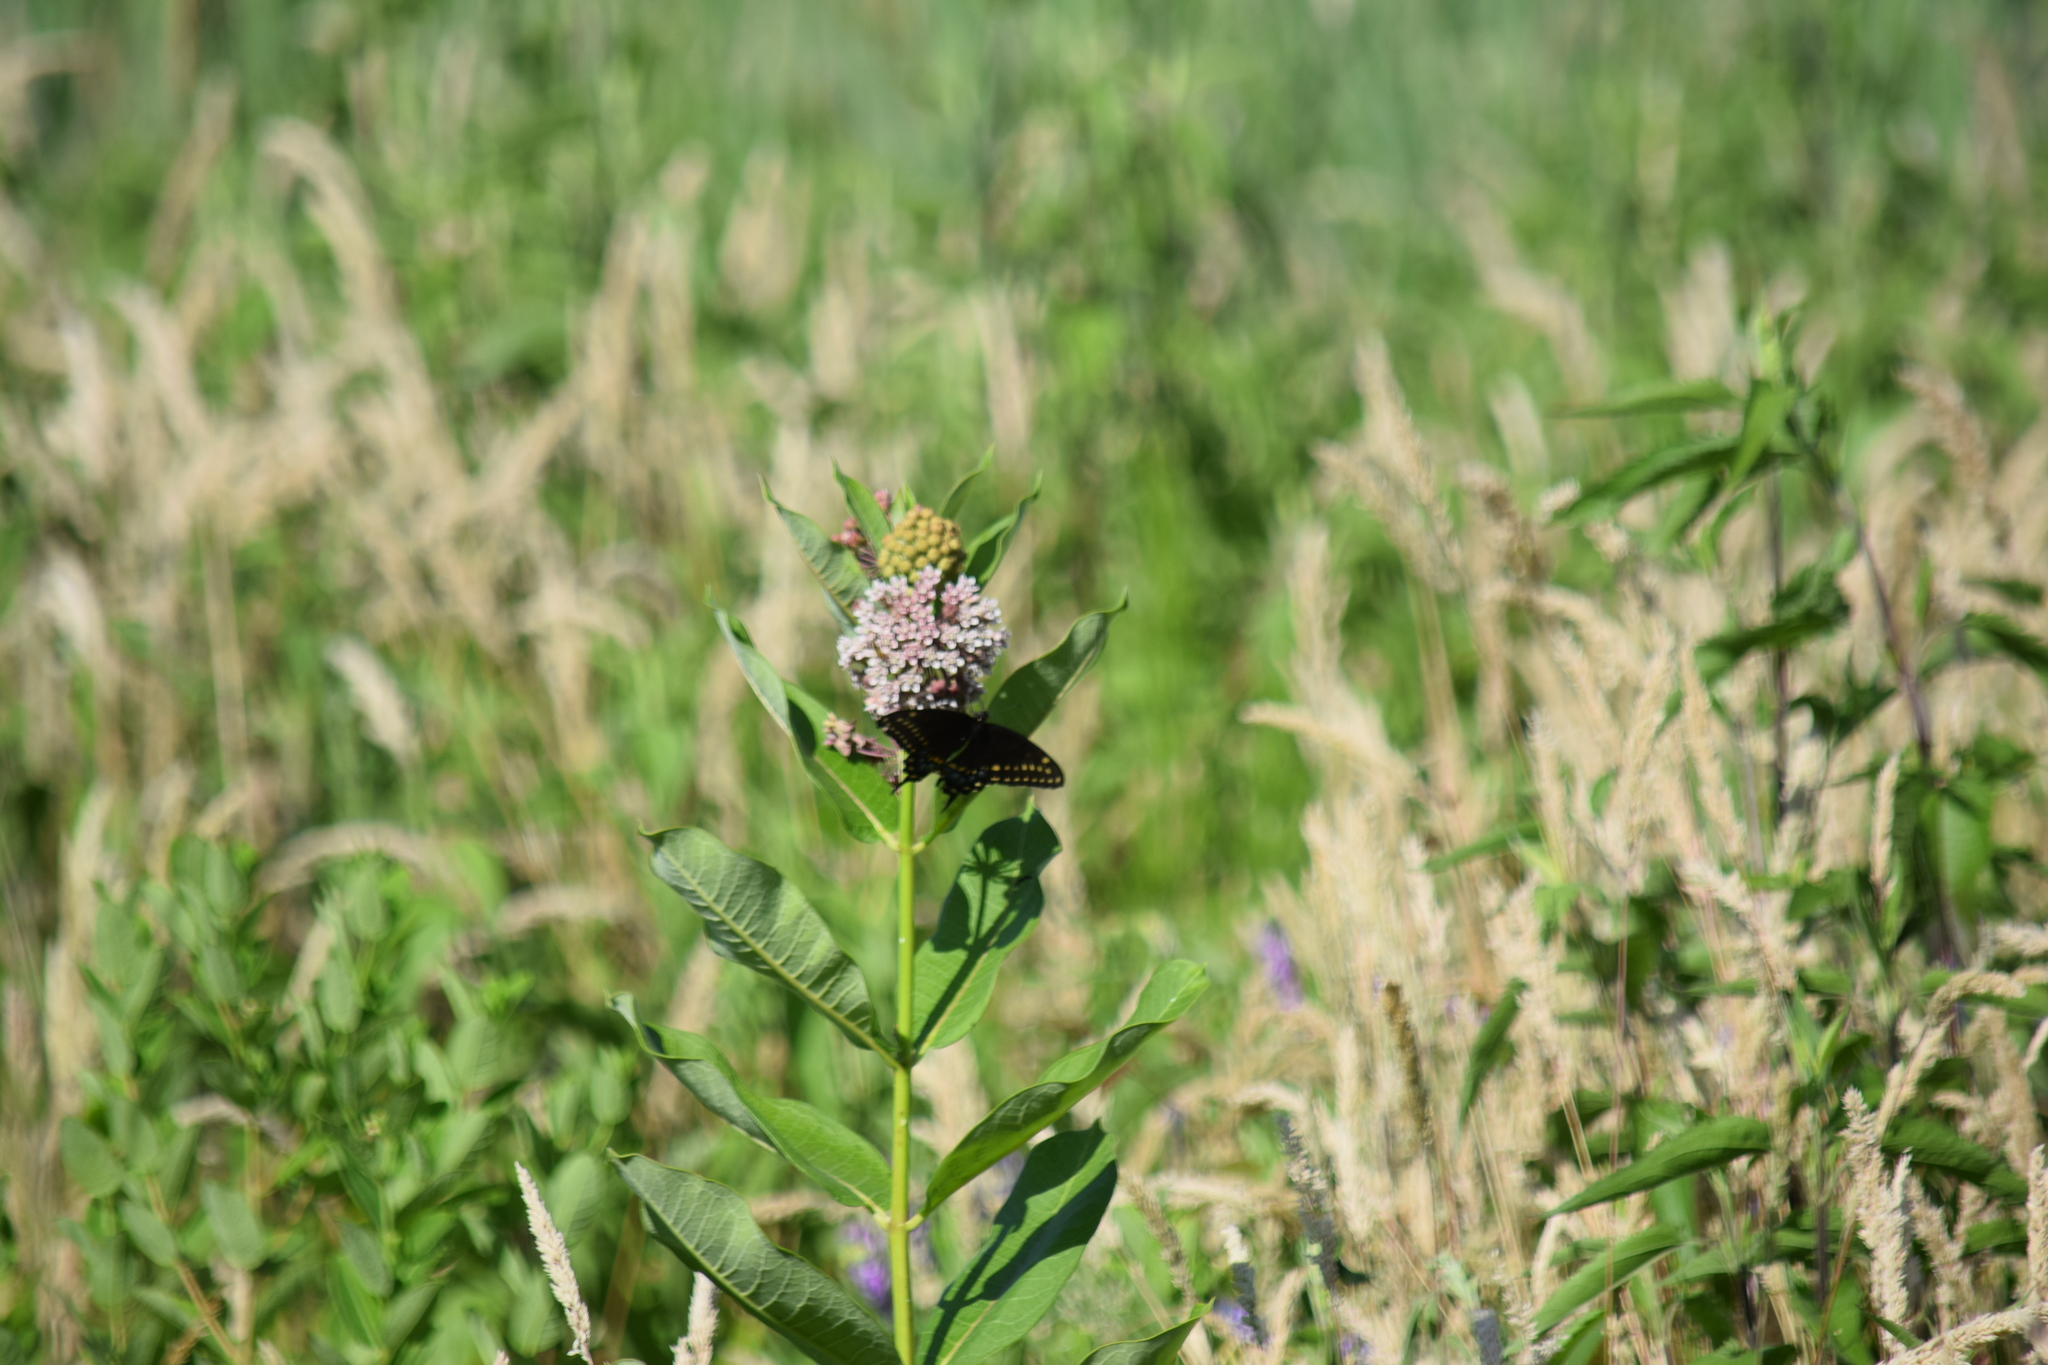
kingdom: Animalia
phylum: Arthropoda
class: Insecta
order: Lepidoptera
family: Papilionidae
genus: Papilio
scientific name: Papilio polyxenes
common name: Black swallowtail
